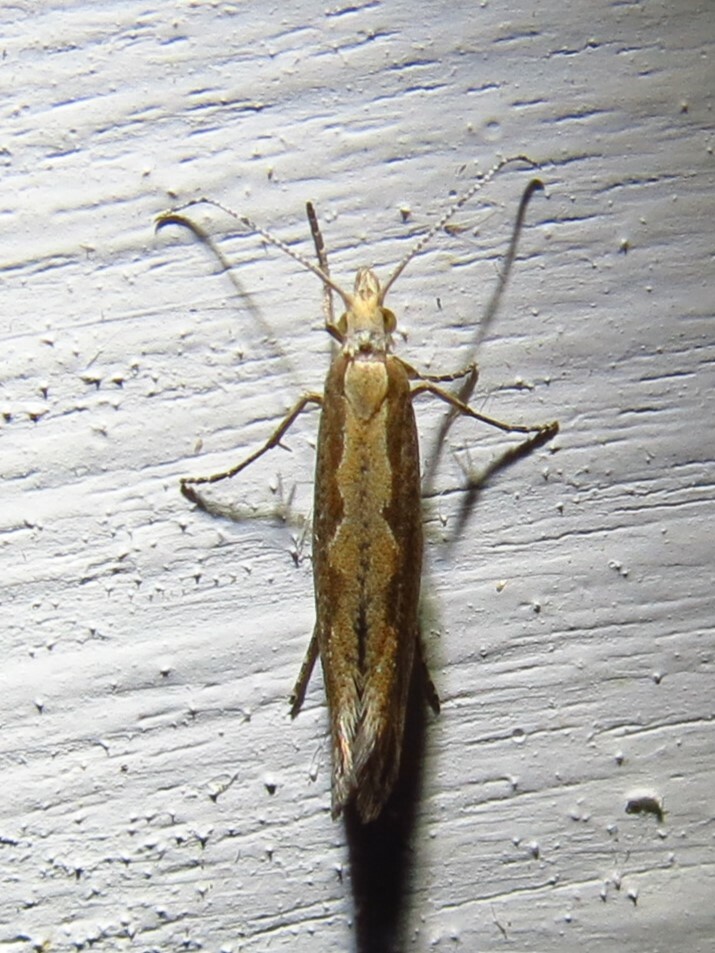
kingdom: Animalia
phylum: Arthropoda
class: Insecta
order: Lepidoptera
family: Plutellidae
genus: Plutella
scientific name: Plutella xylostella
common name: Diamond-back moth
